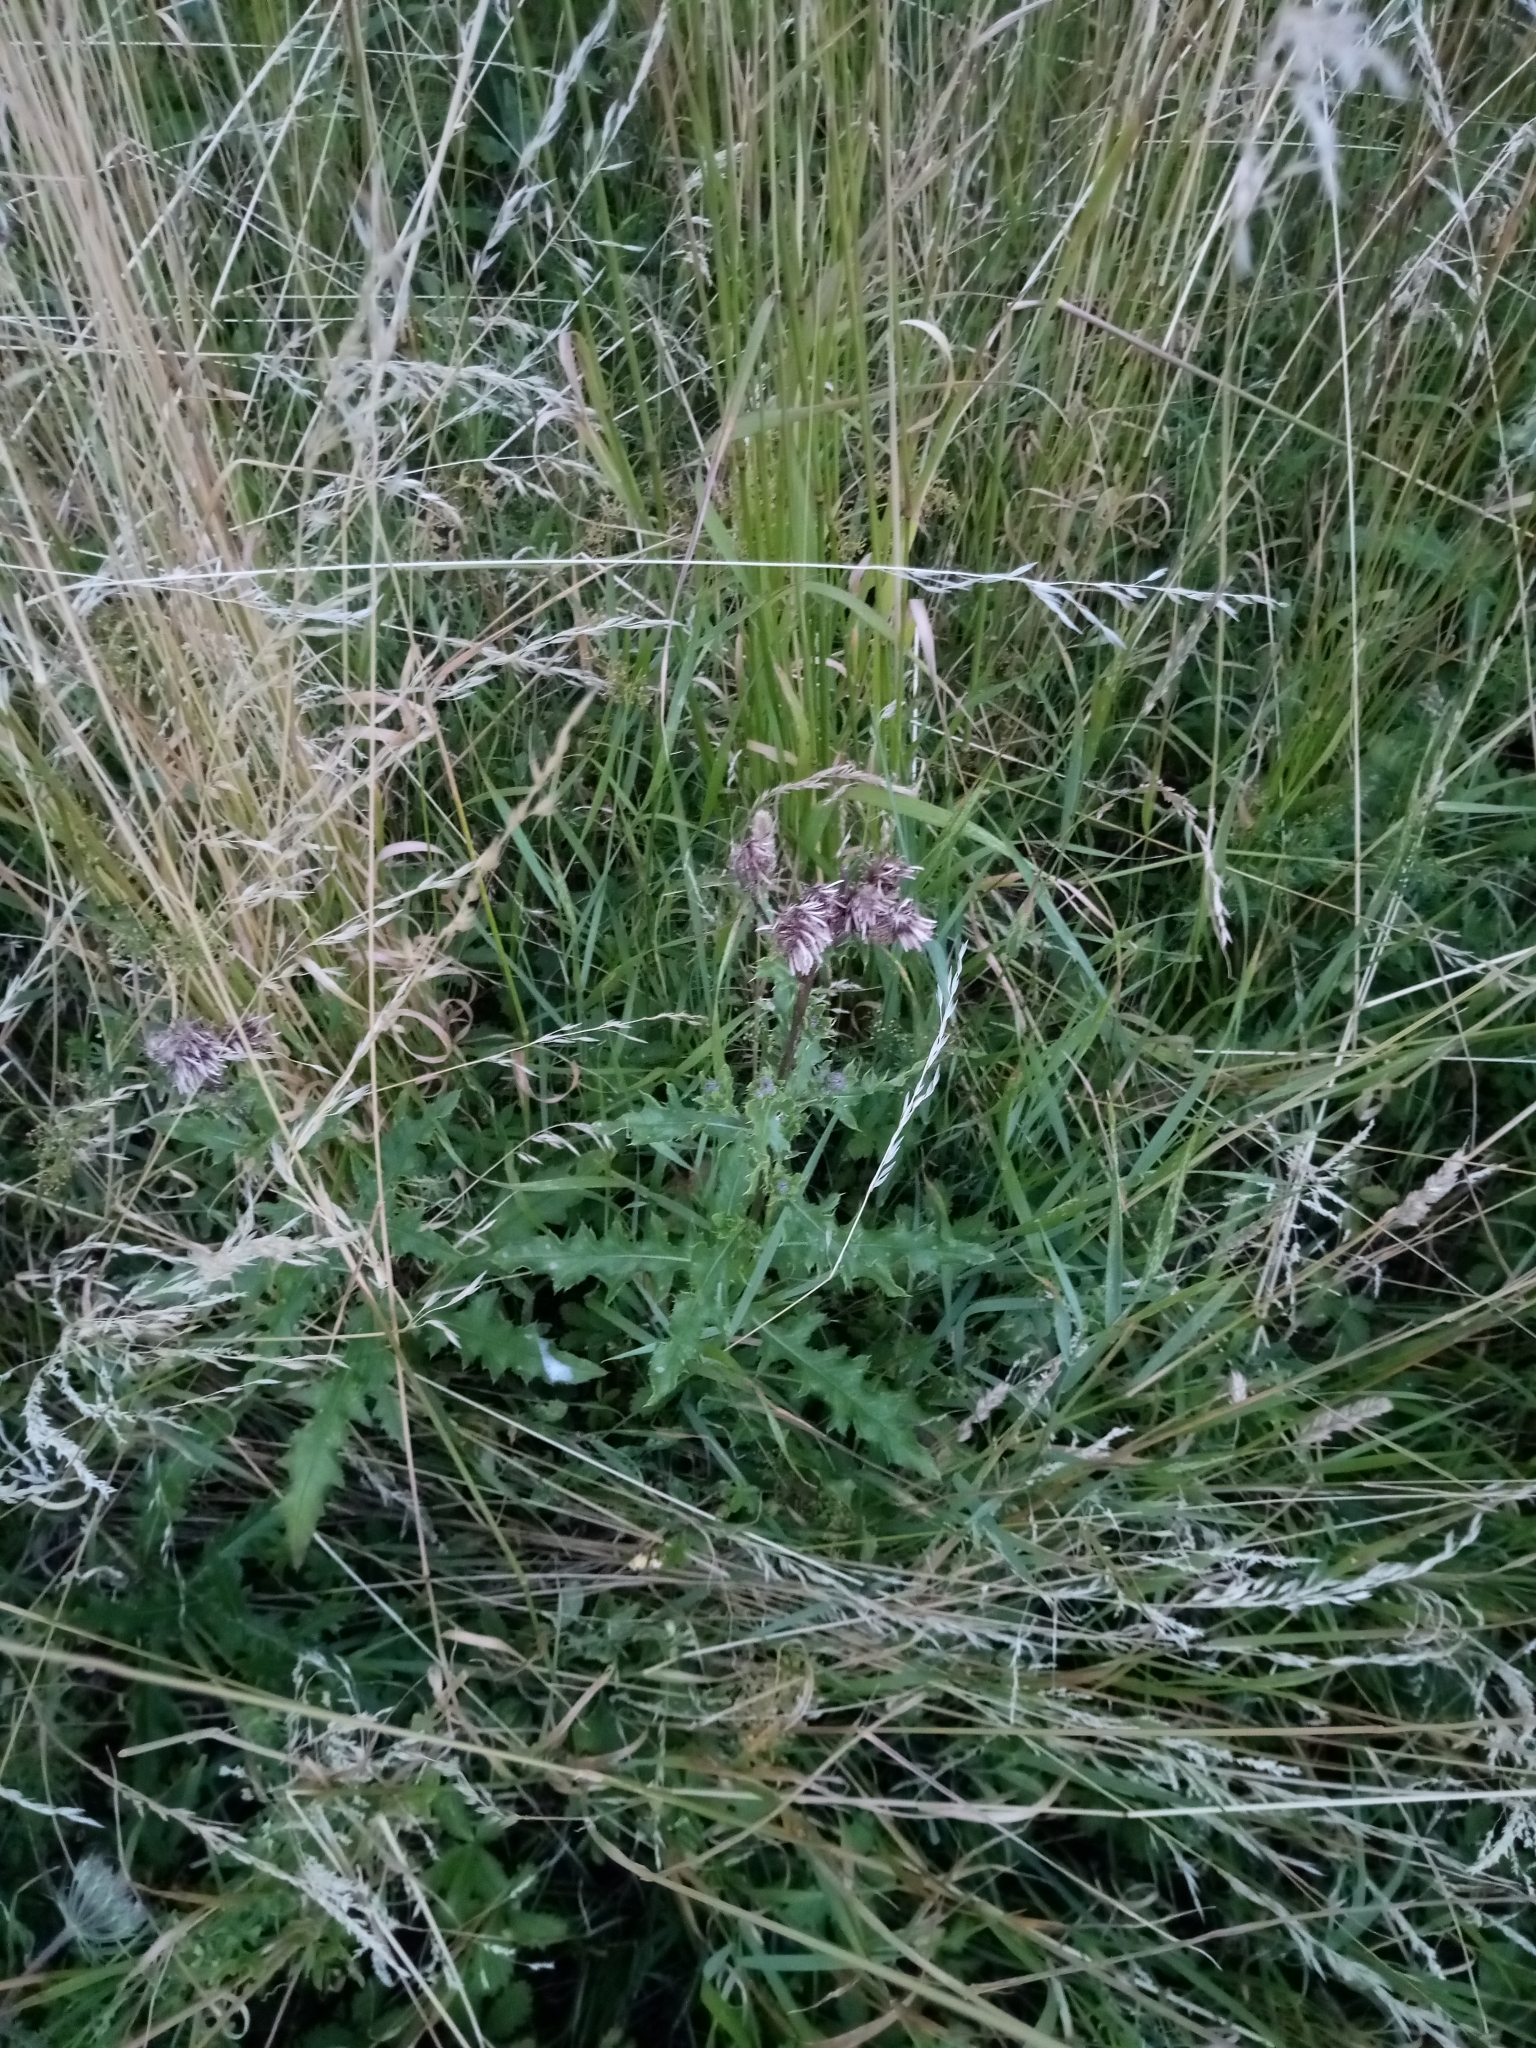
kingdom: Plantae
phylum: Tracheophyta
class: Magnoliopsida
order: Asterales
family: Asteraceae
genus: Cirsium
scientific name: Cirsium arvense
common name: Creeping thistle
